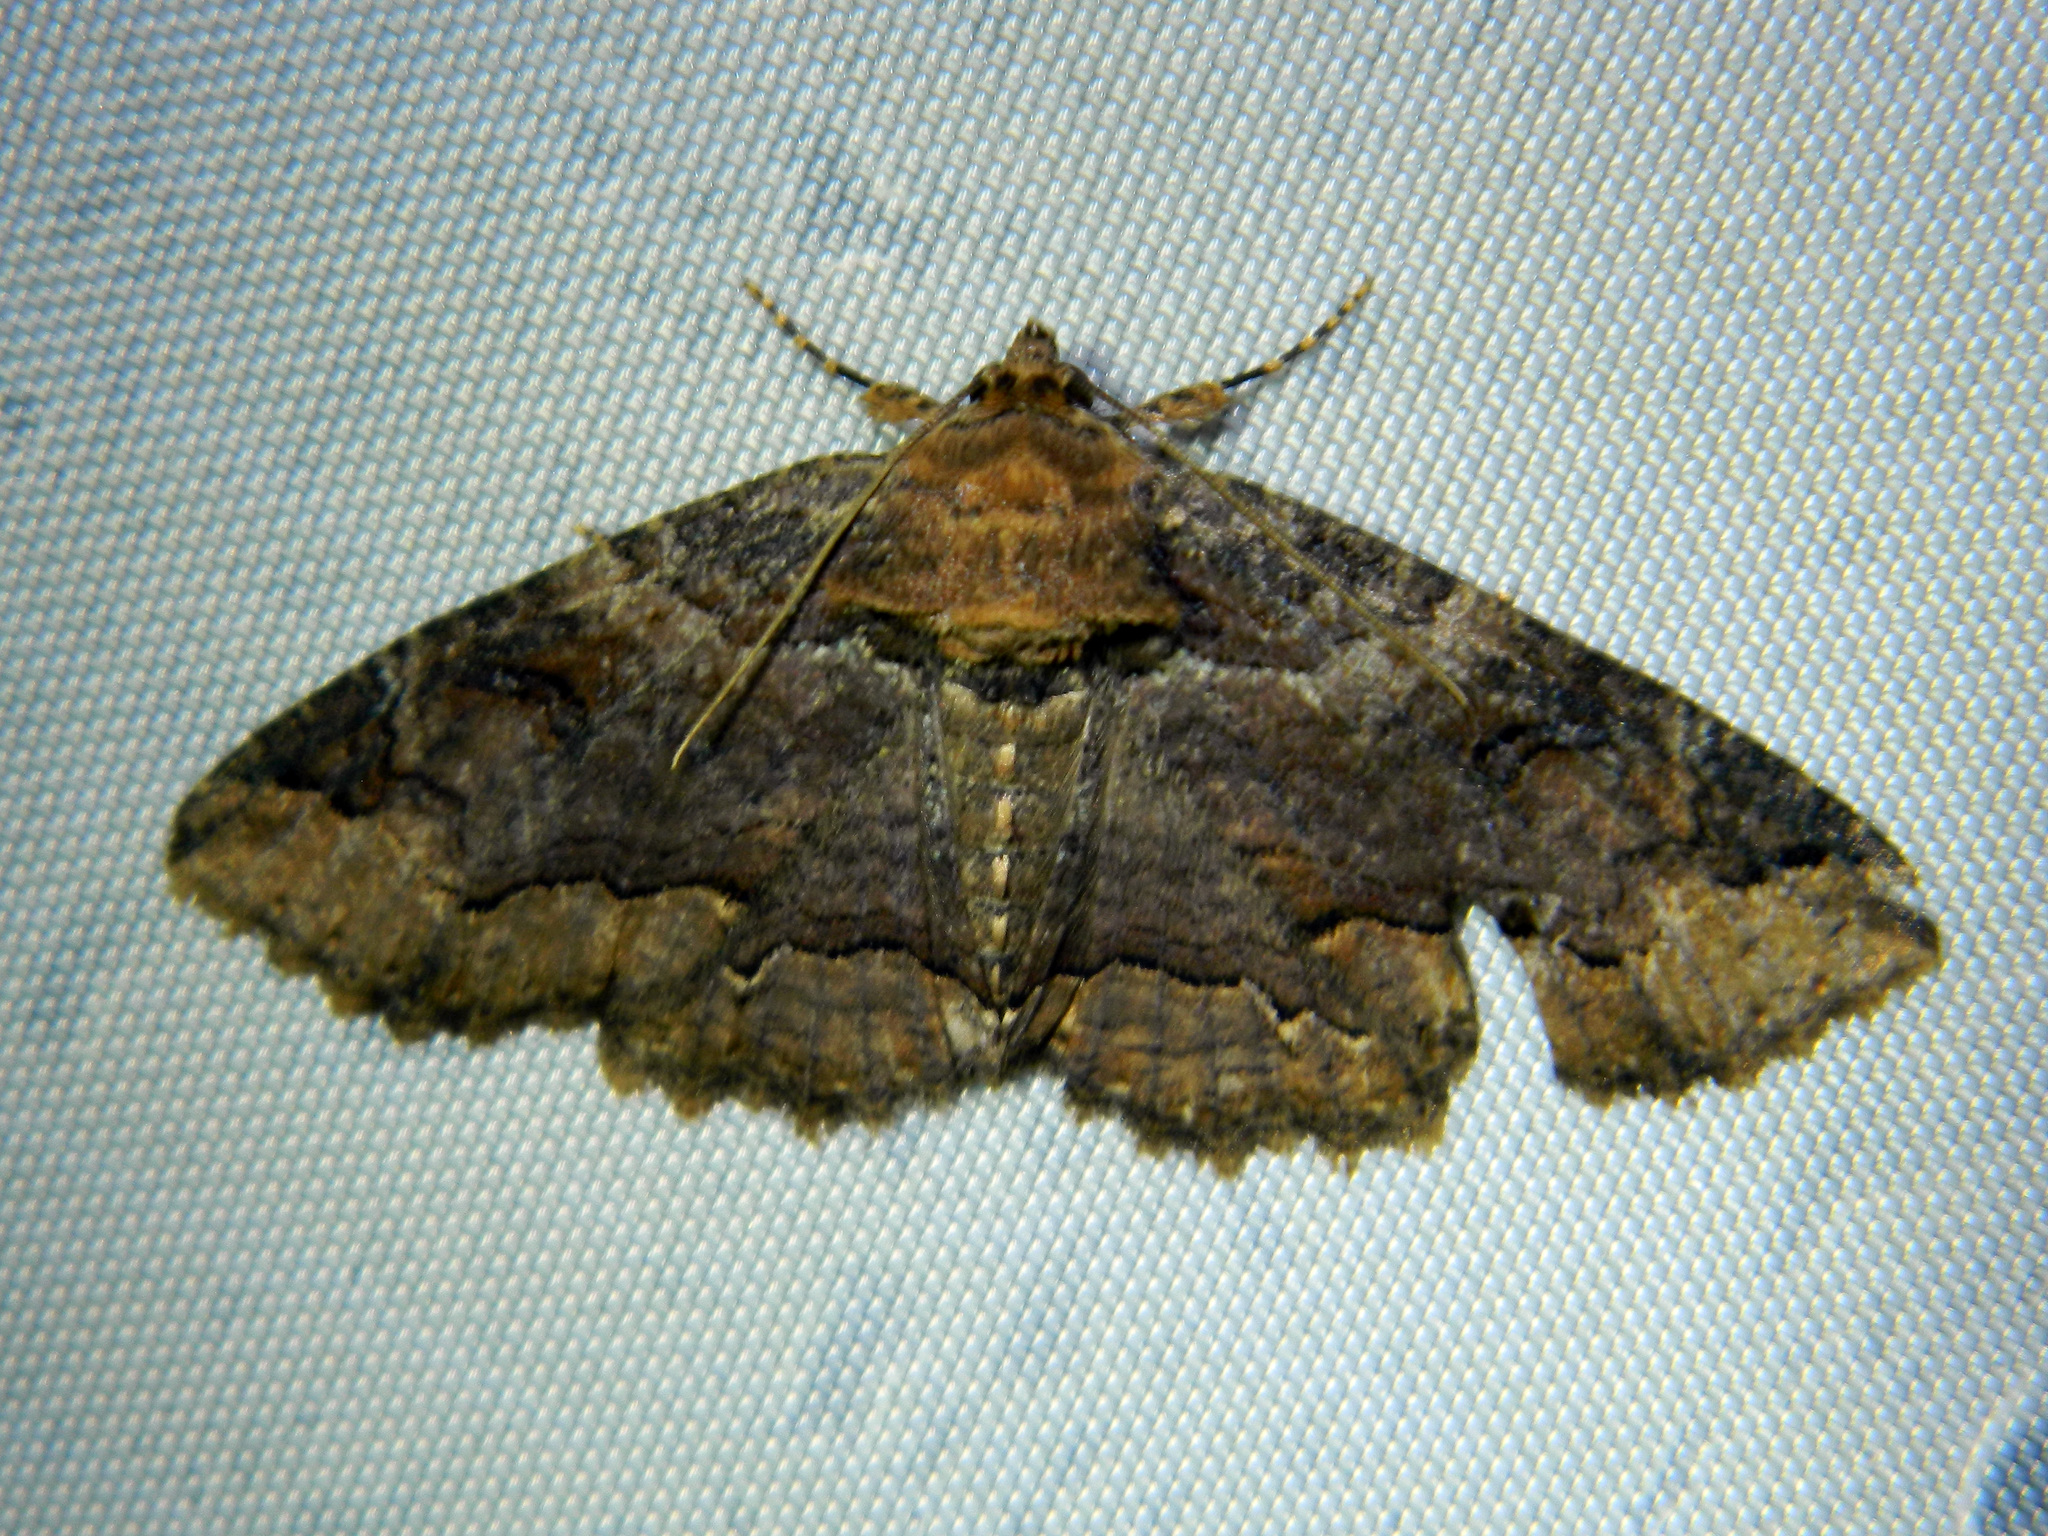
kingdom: Animalia
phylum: Arthropoda
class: Insecta
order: Lepidoptera
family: Erebidae
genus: Zale
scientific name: Zale minerea
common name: Colorful zale moth
